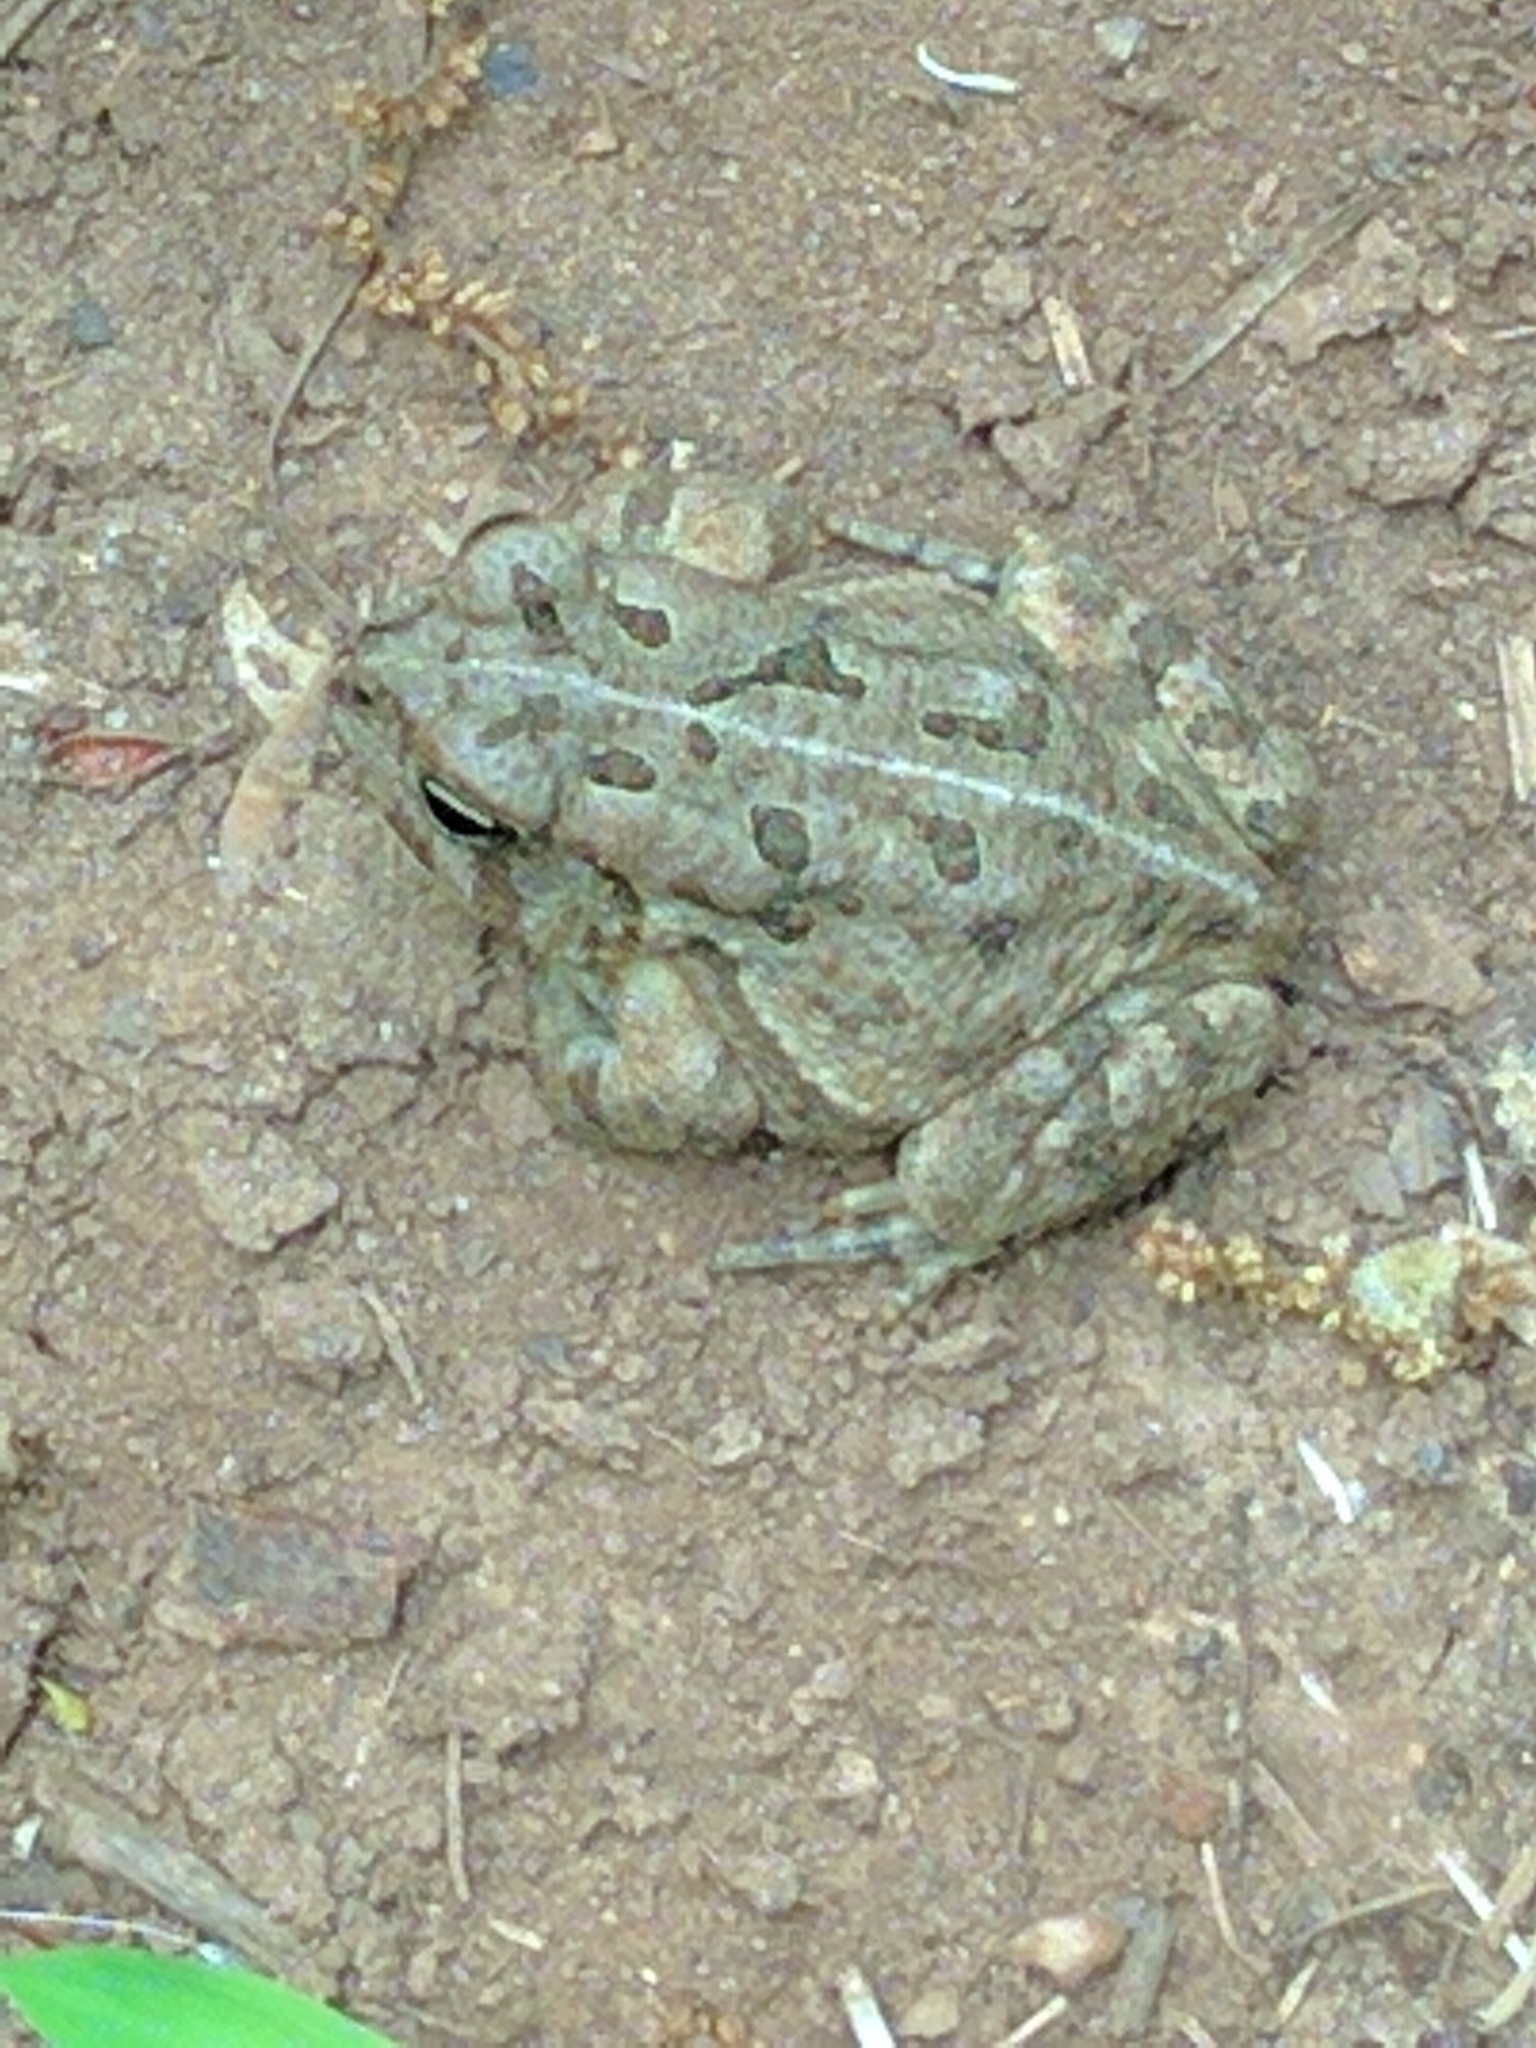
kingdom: Animalia
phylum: Chordata
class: Amphibia
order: Anura
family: Bufonidae
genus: Anaxyrus
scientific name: Anaxyrus fowleri
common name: Fowler's toad
